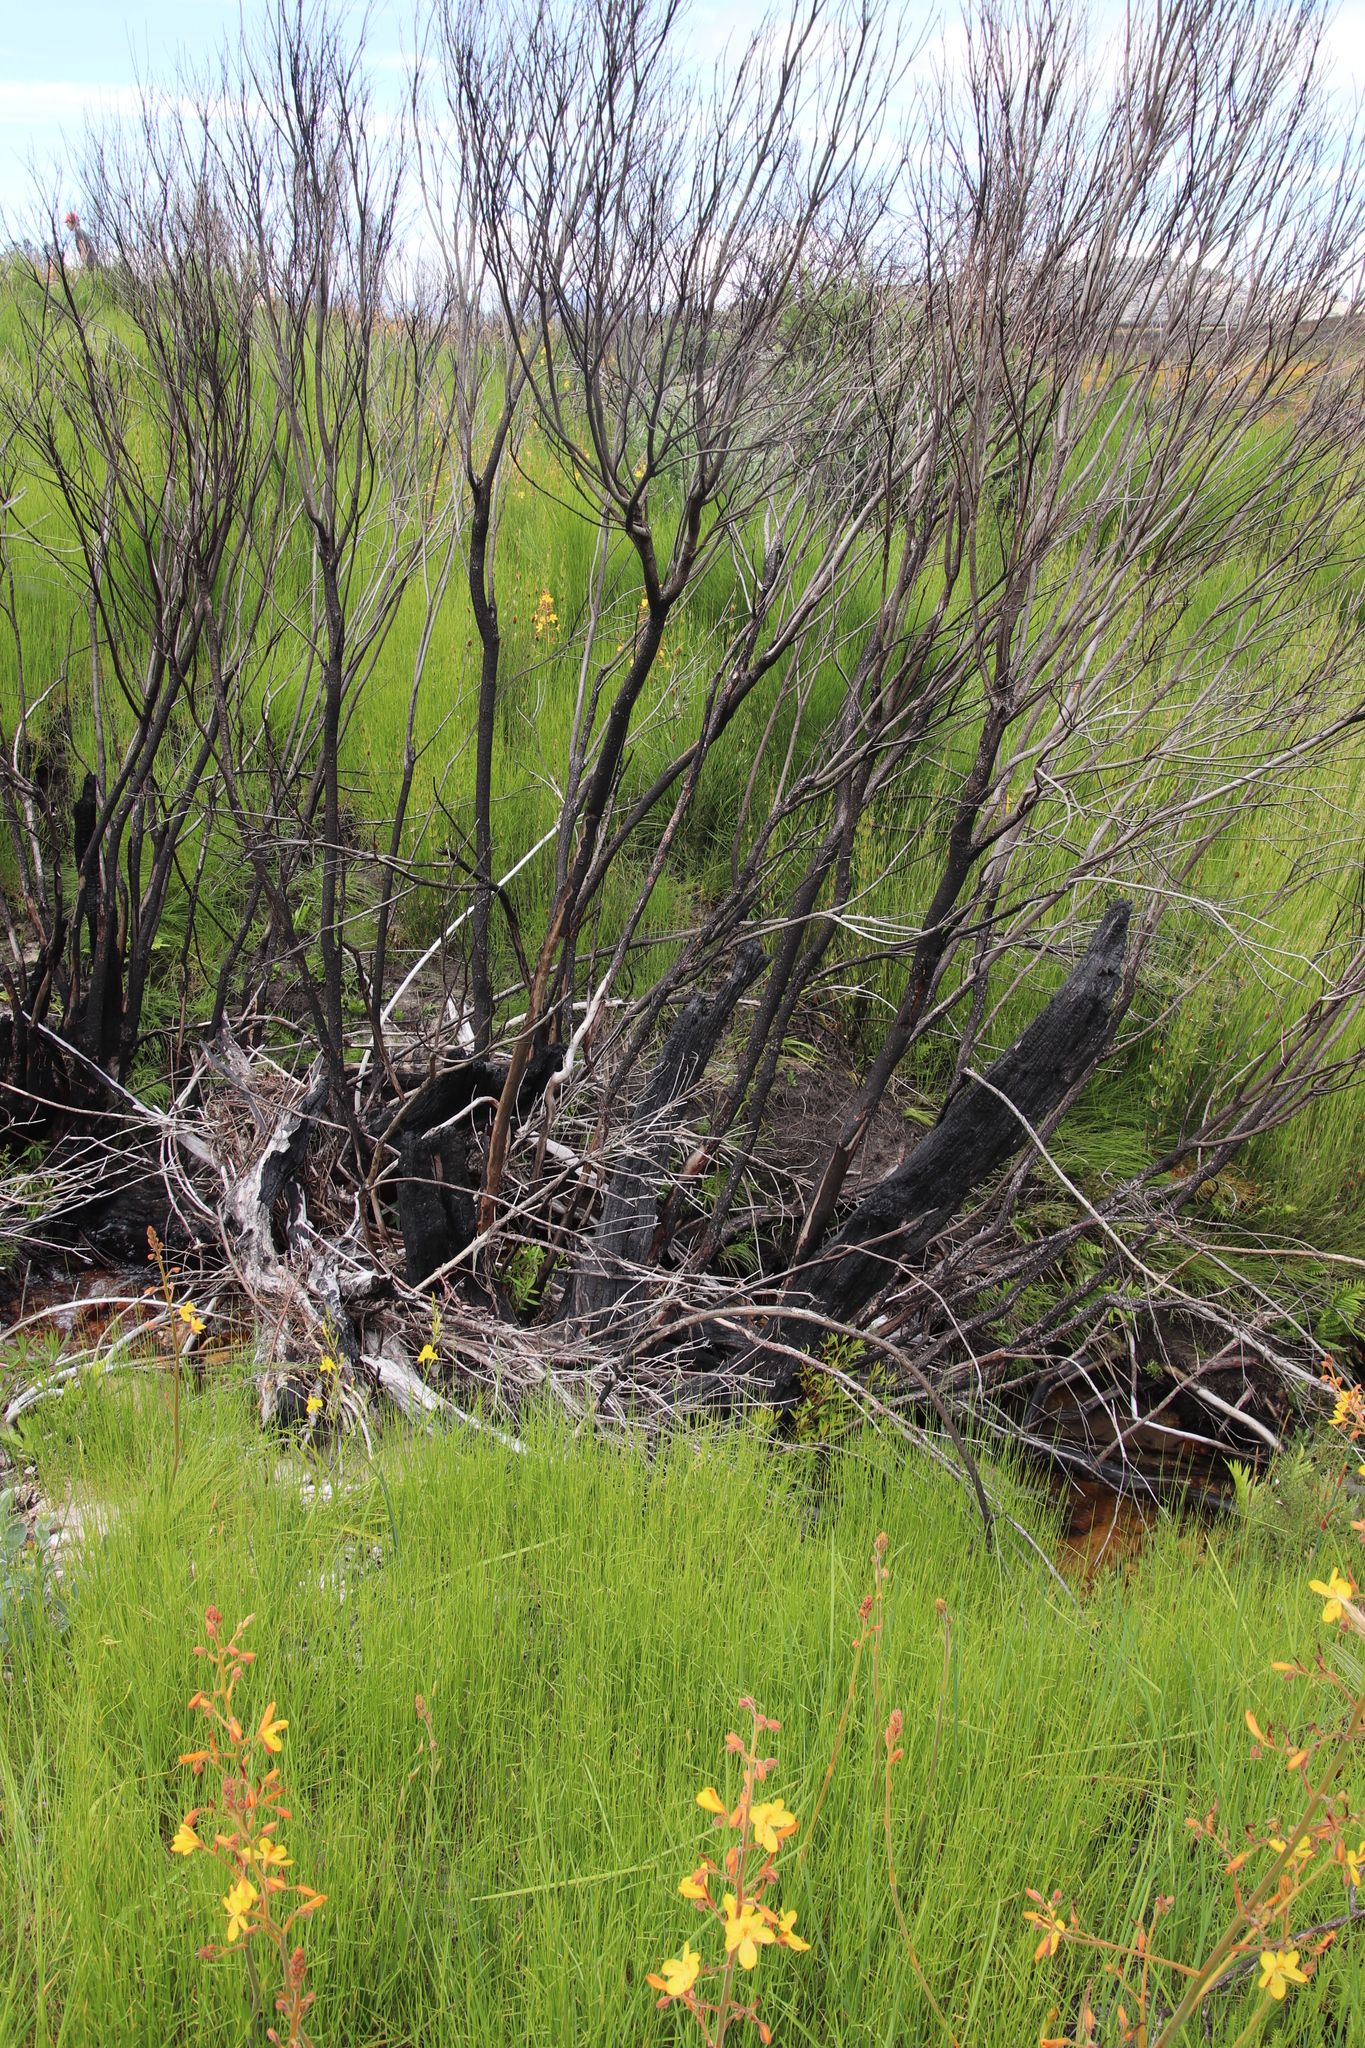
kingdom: Plantae
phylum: Tracheophyta
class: Magnoliopsida
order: Myrtales
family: Myrtaceae
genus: Callistemon
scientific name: Callistemon lanceolatus
